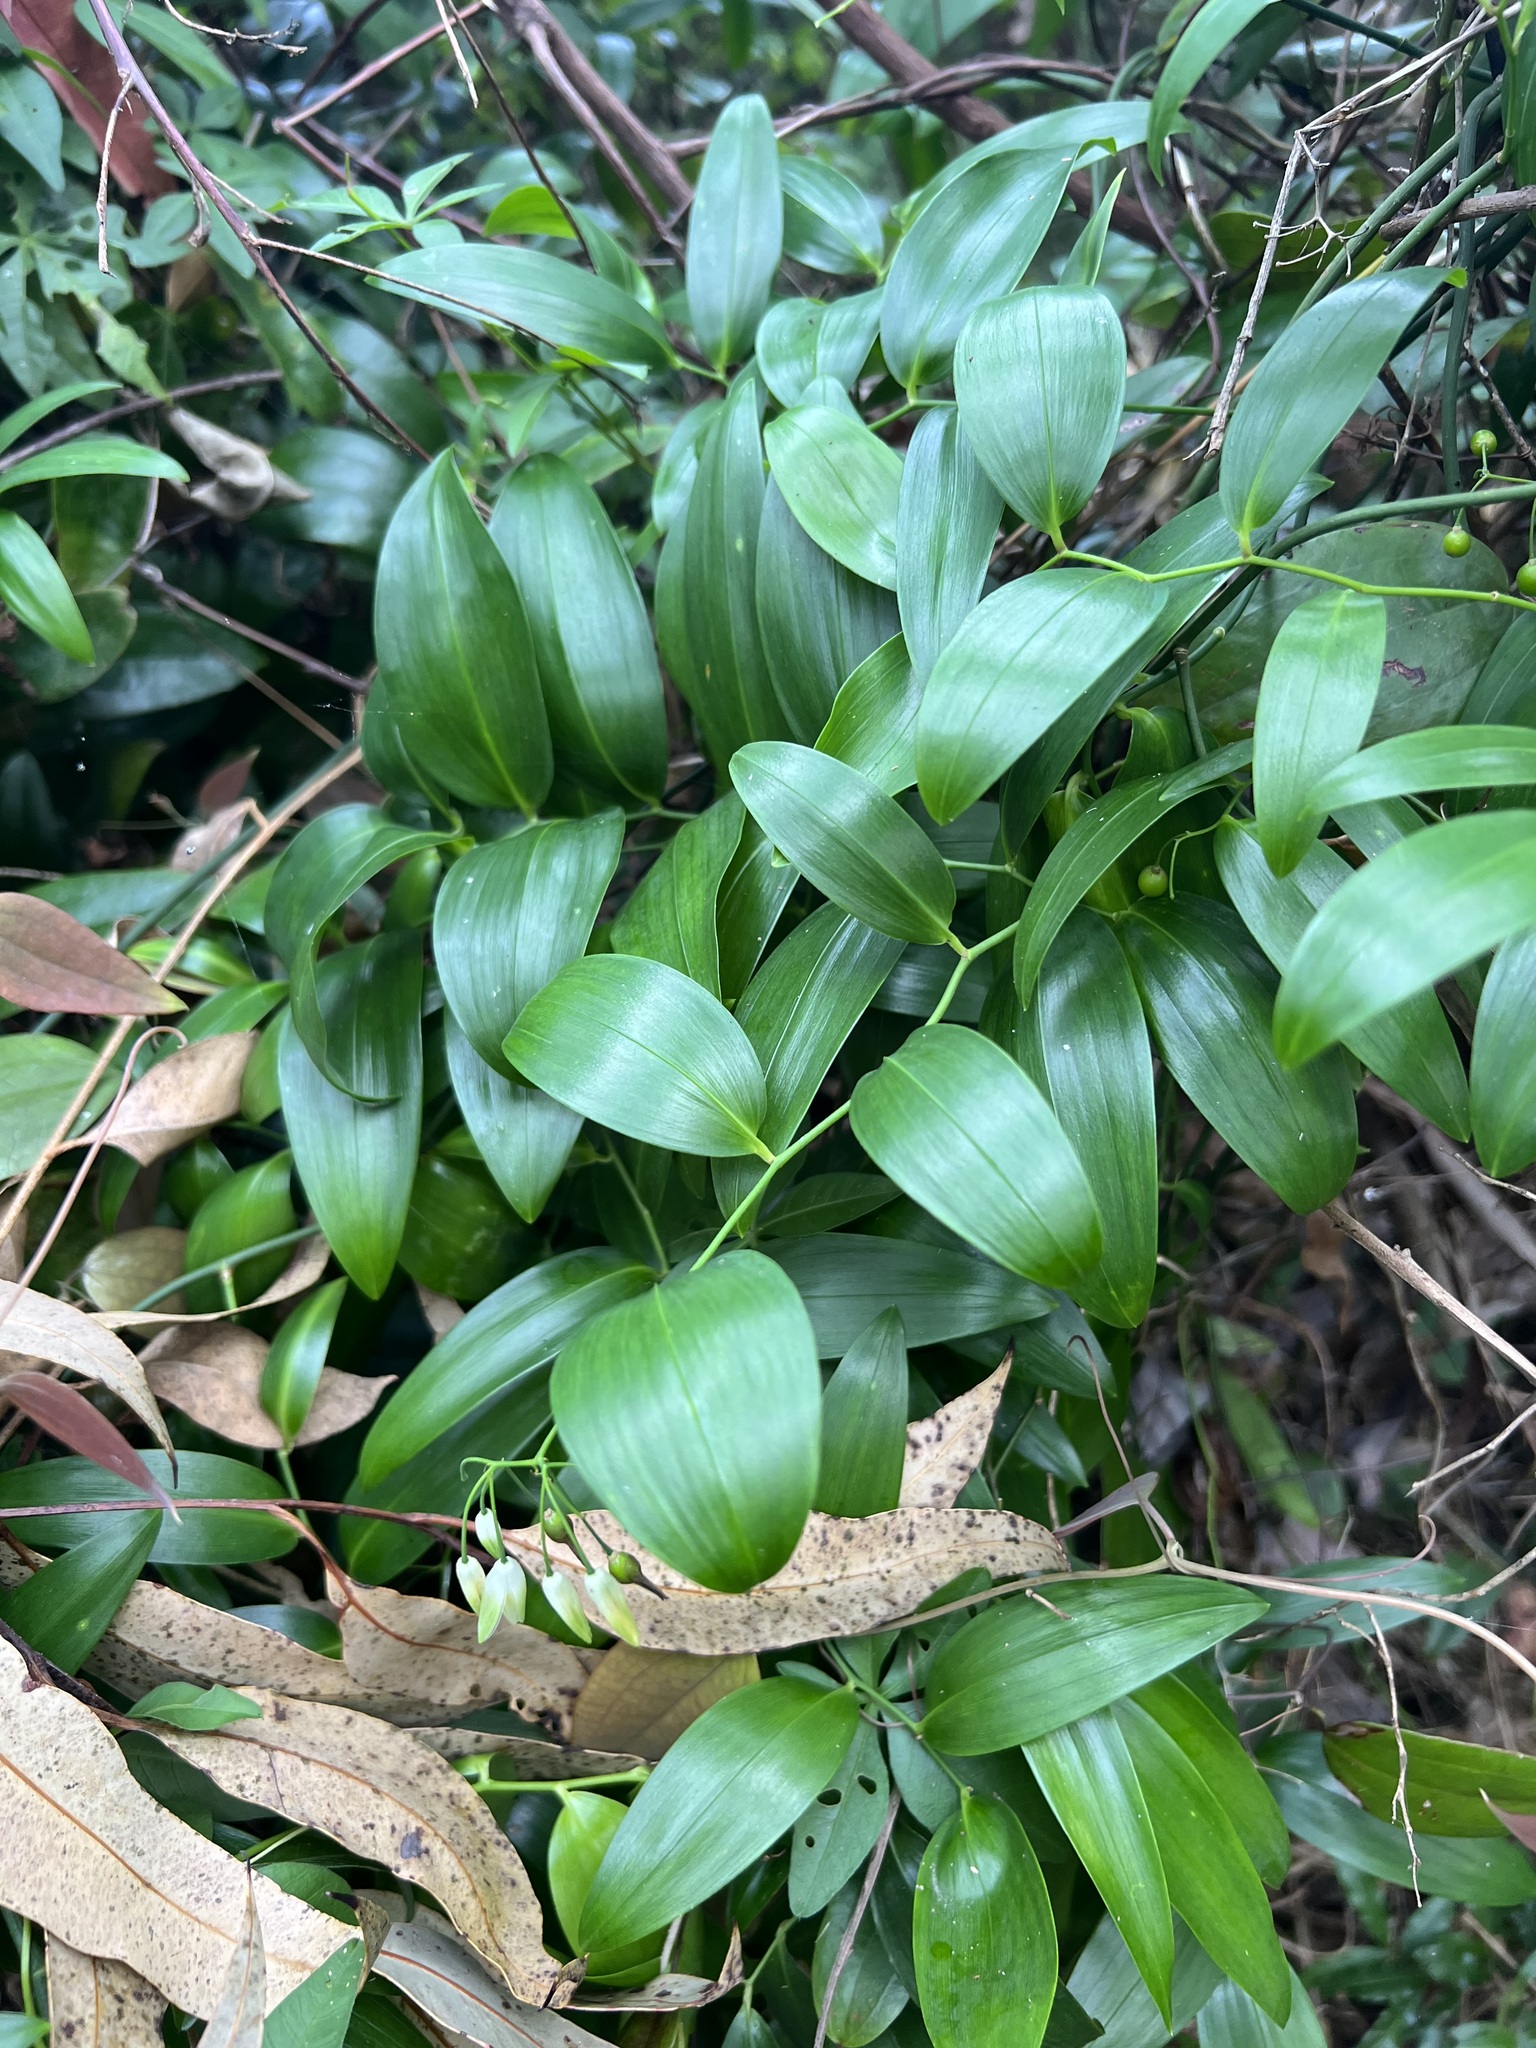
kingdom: Plantae
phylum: Tracheophyta
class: Liliopsida
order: Asparagales
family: Asphodelaceae
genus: Geitonoplesium
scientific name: Geitonoplesium cymosum
